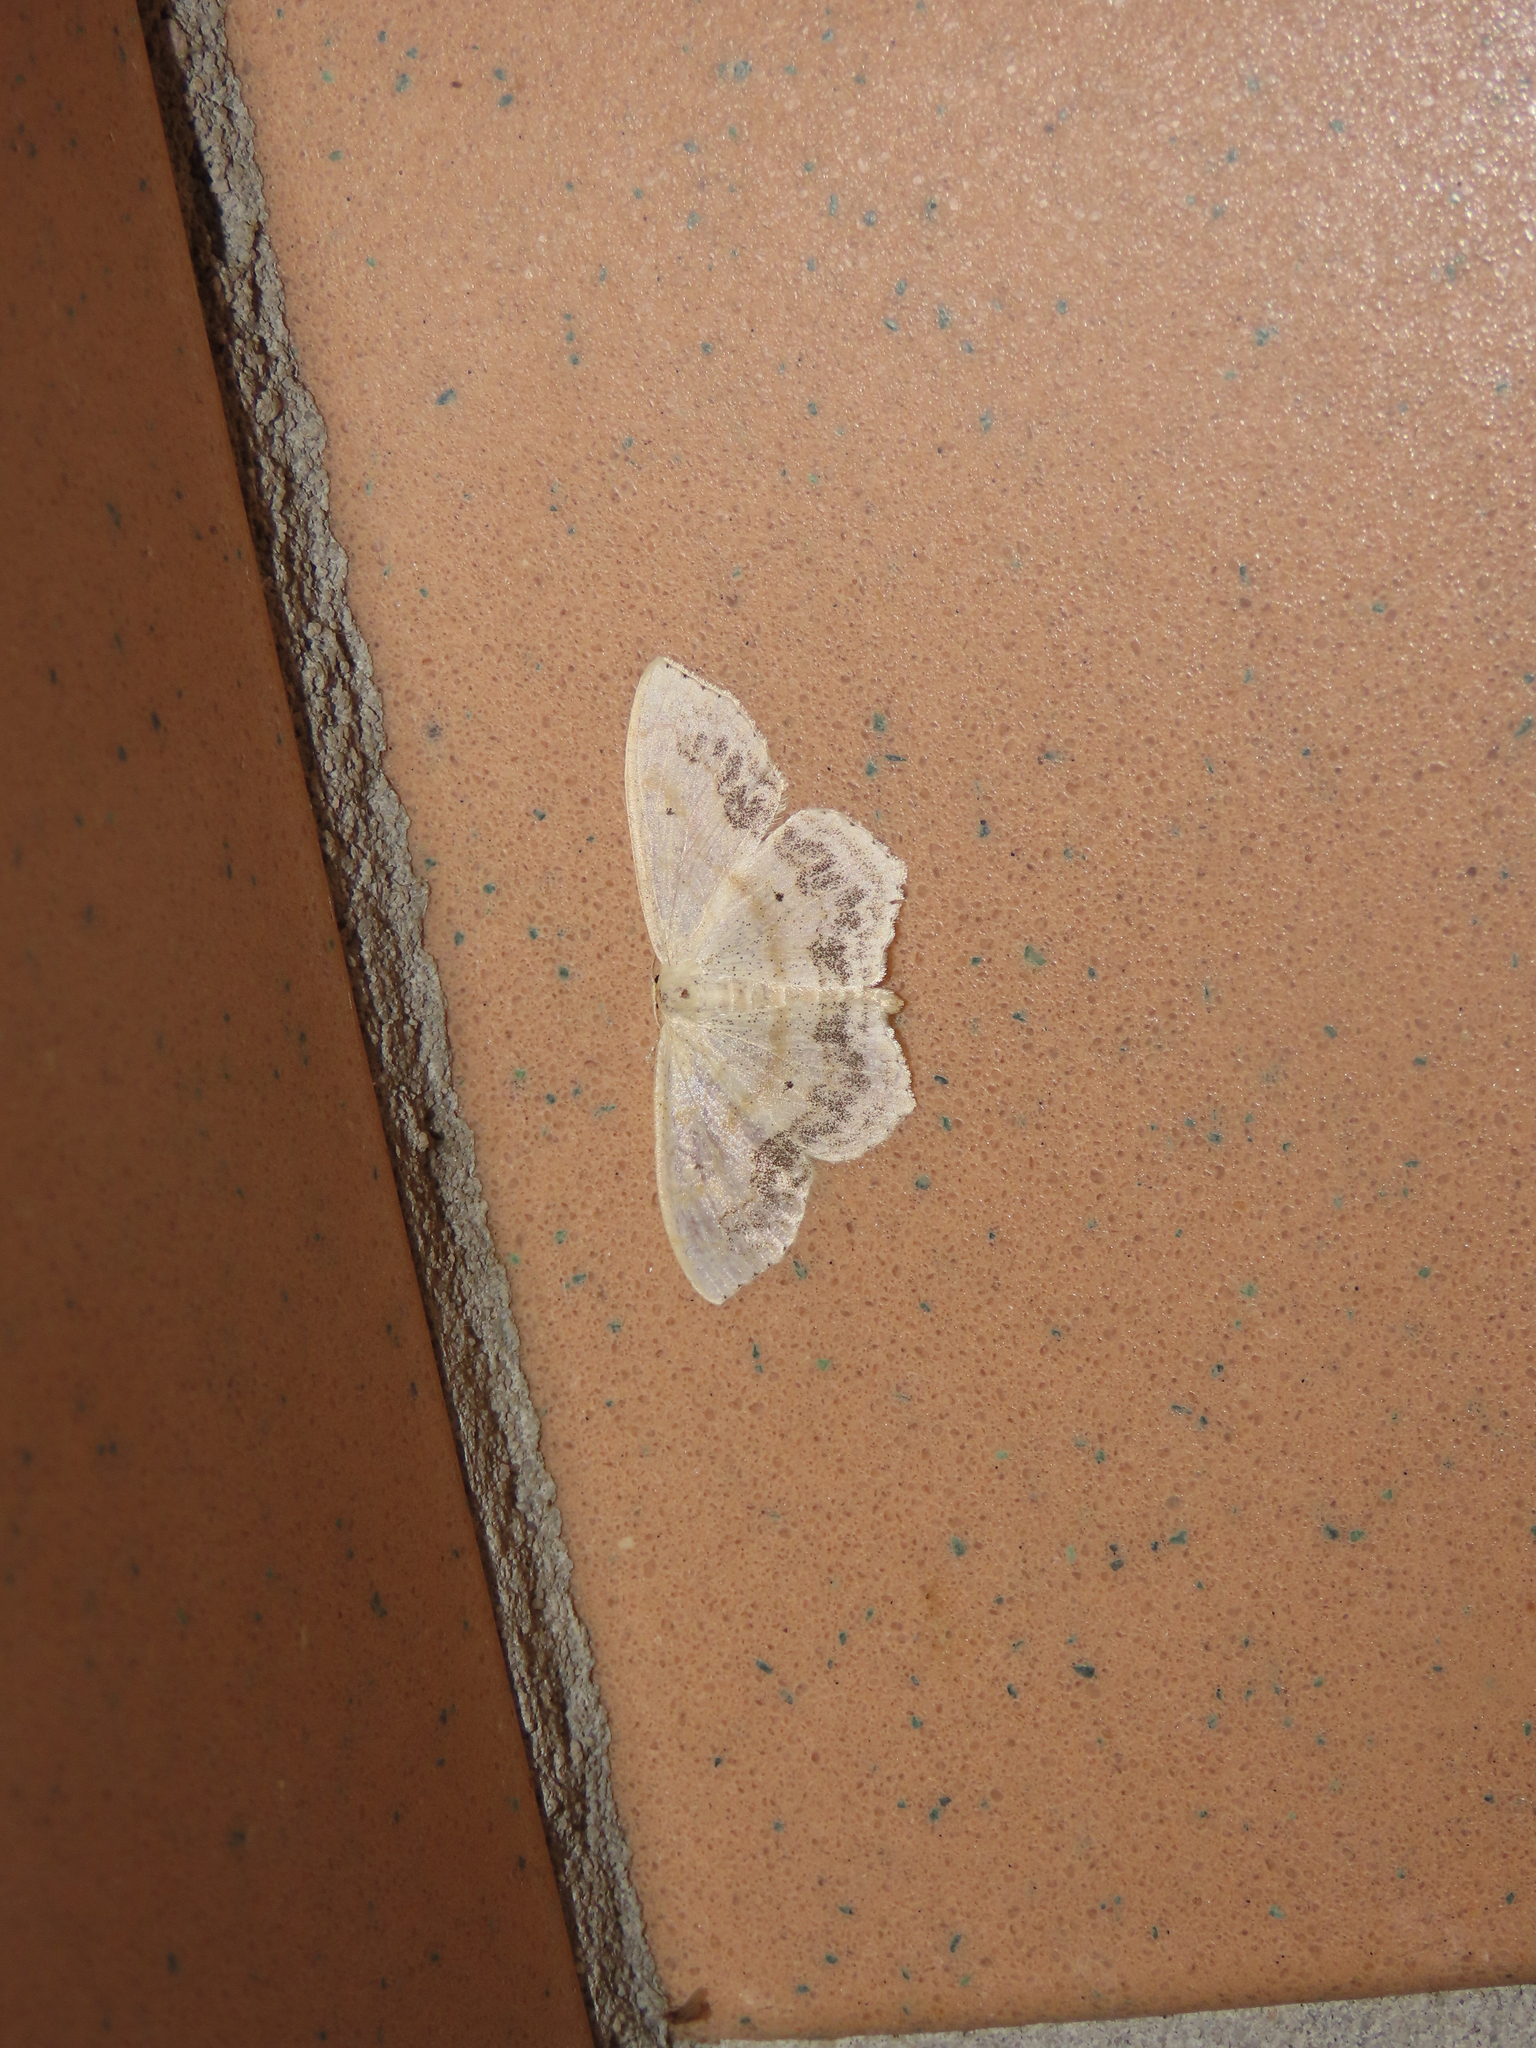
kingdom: Animalia
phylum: Arthropoda
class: Insecta
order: Lepidoptera
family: Geometridae
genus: Scopula
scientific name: Scopula limboundata
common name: Large lace border
